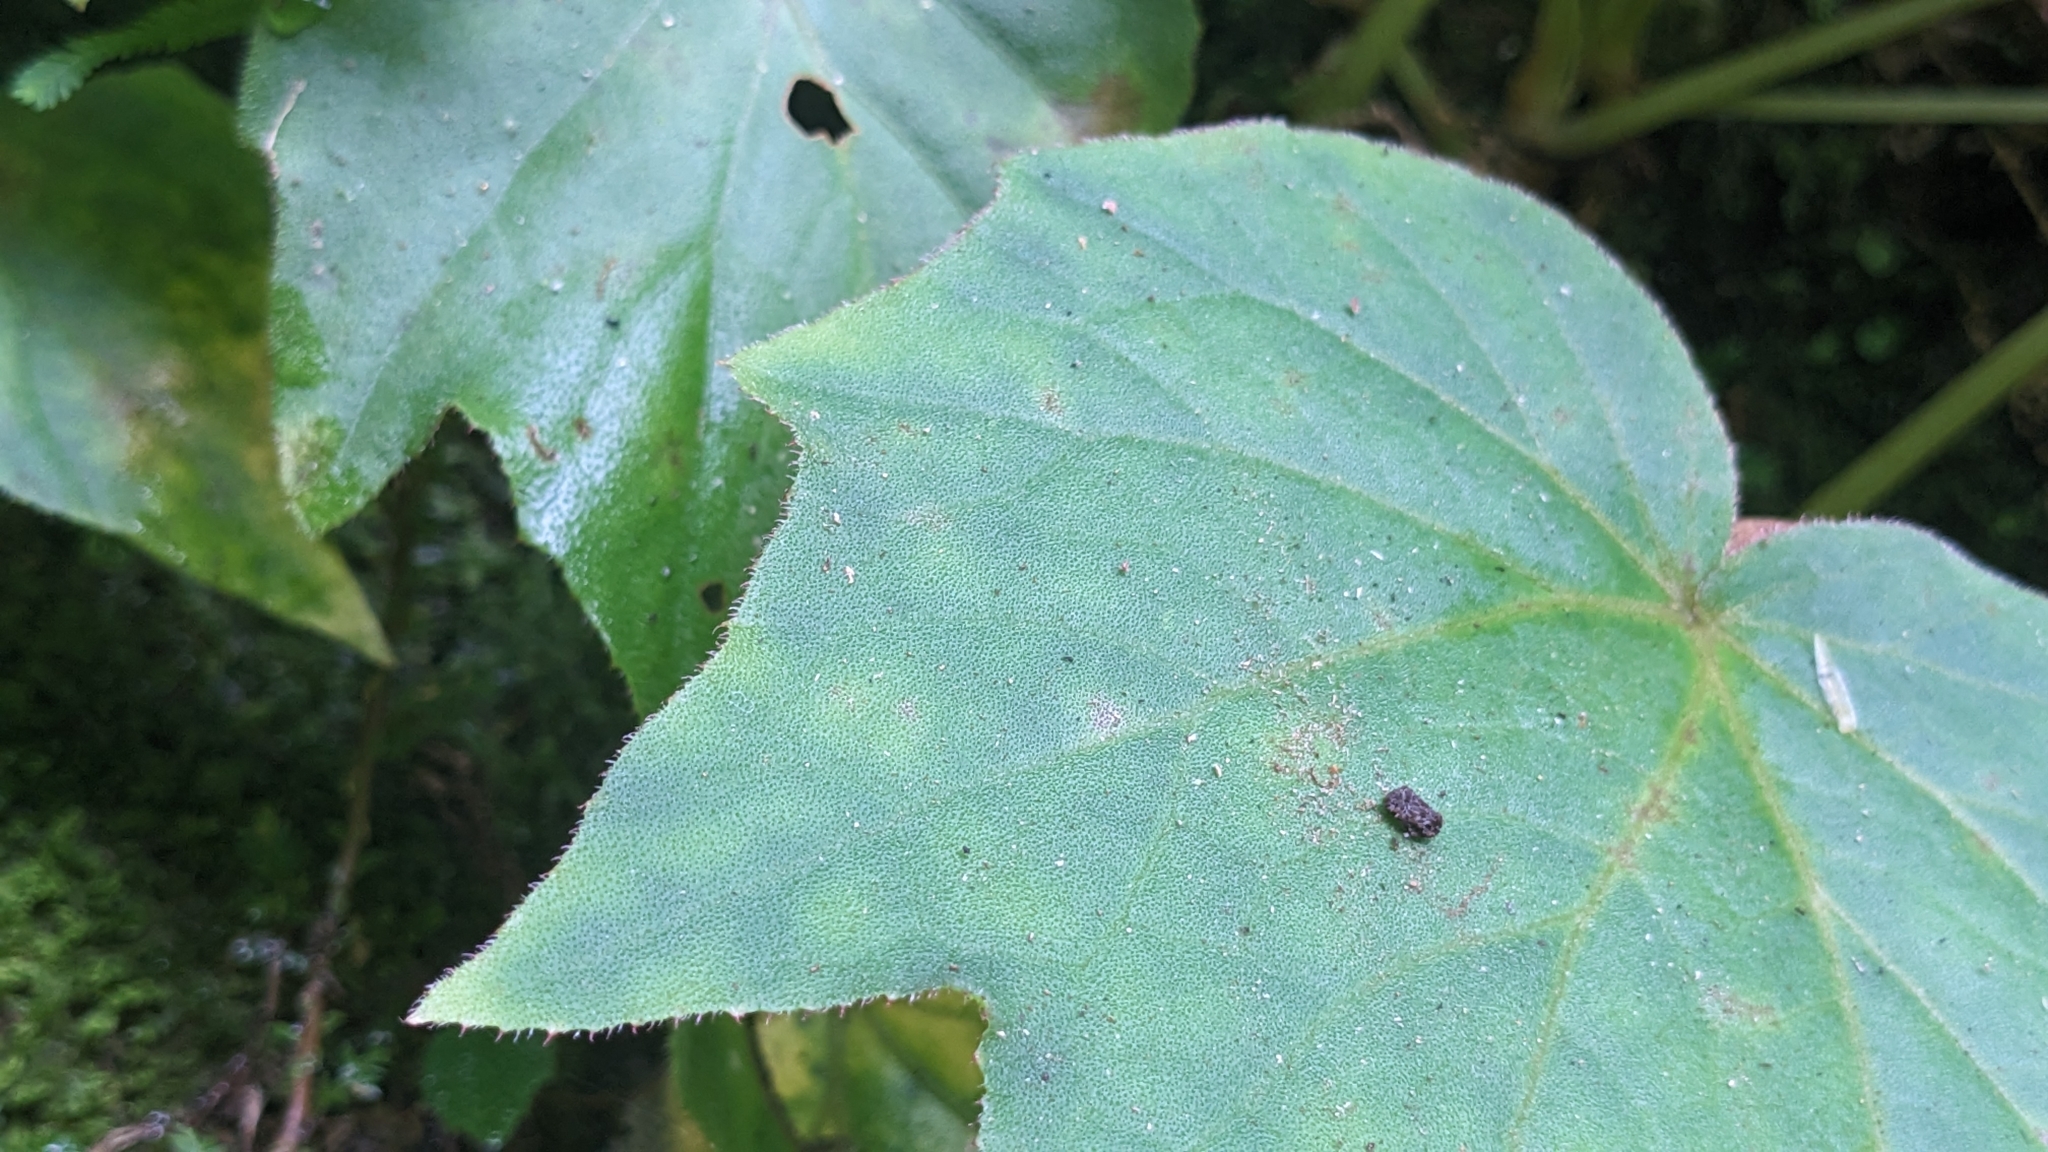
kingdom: Plantae
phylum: Tracheophyta
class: Magnoliopsida
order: Cucurbitales
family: Begoniaceae
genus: Begonia
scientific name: Begonia palmata
